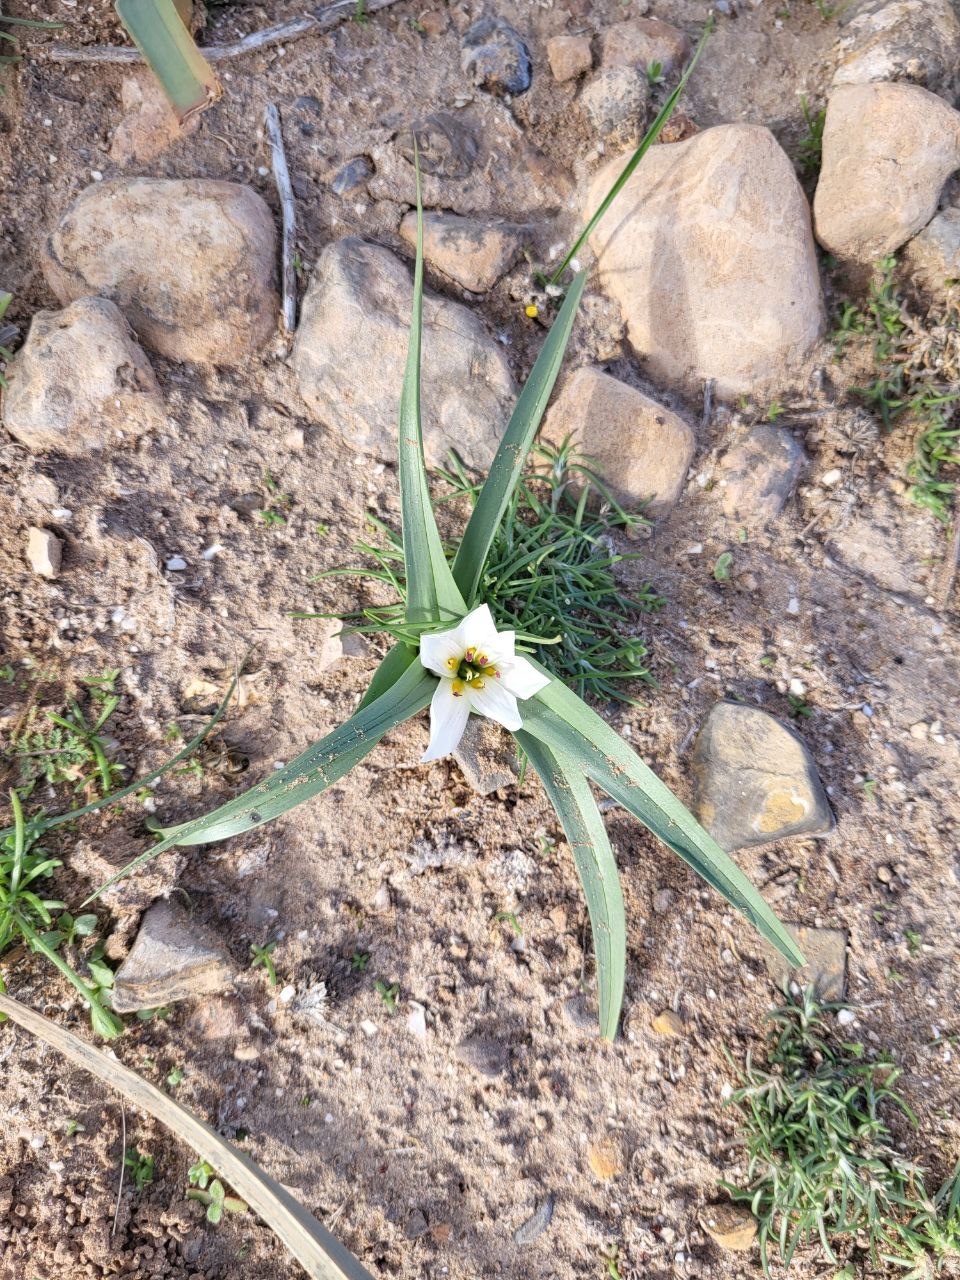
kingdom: Plantae
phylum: Tracheophyta
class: Liliopsida
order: Liliales
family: Colchicaceae
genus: Colchicum
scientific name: Colchicum gramineum
